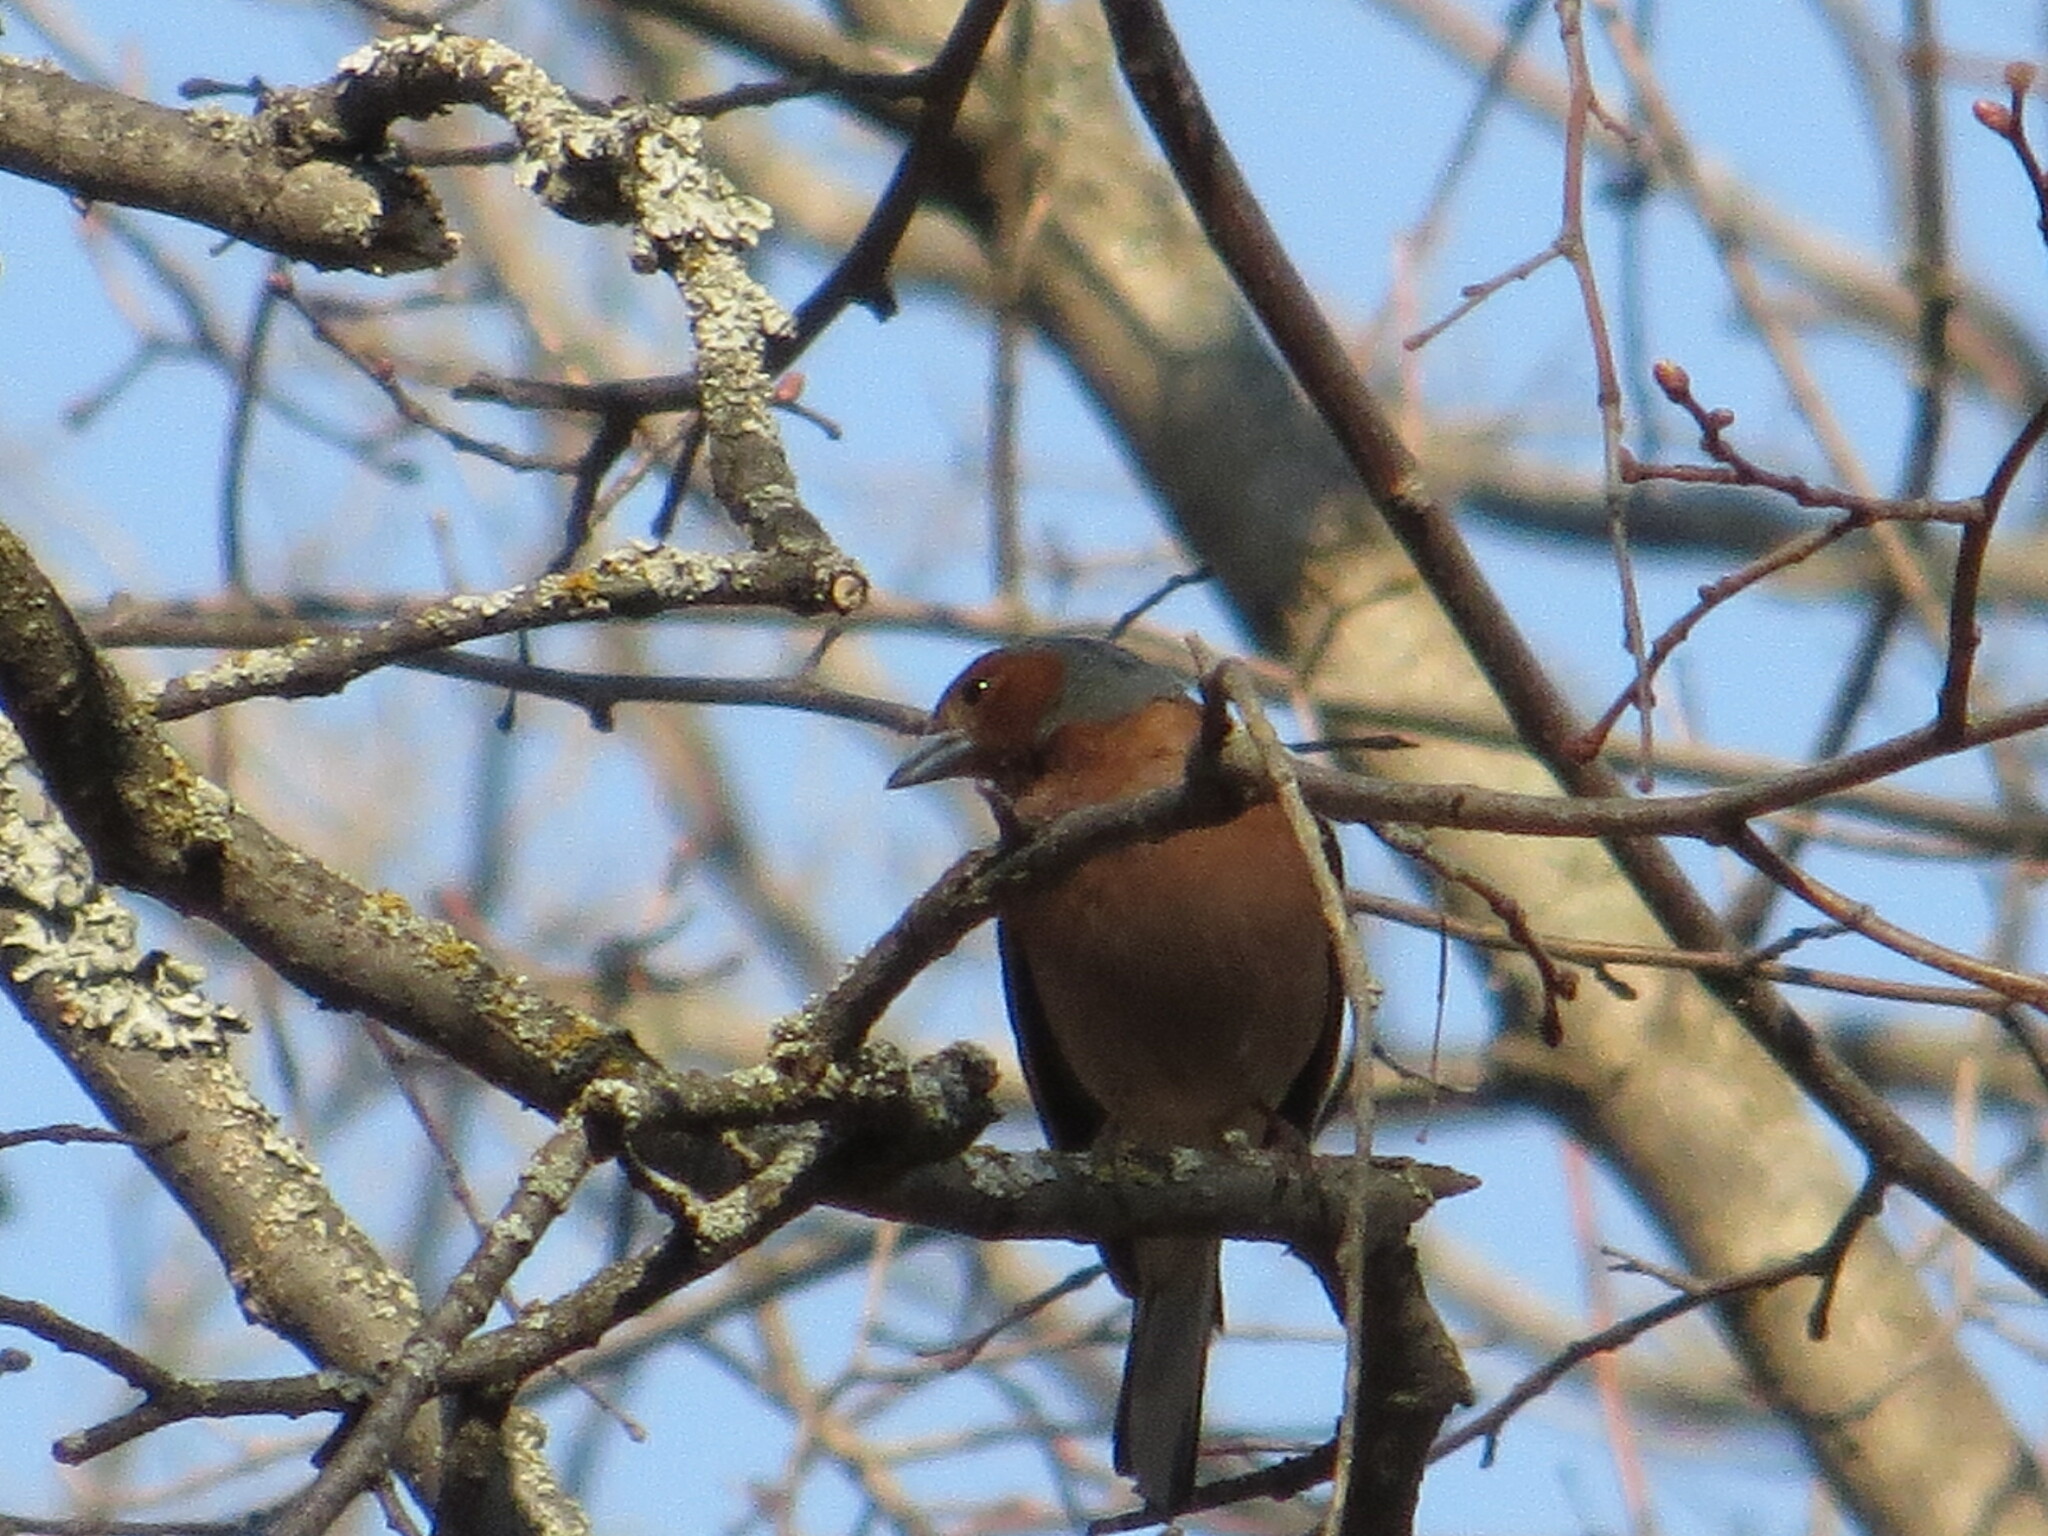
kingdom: Animalia
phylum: Chordata
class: Aves
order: Passeriformes
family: Fringillidae
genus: Fringilla
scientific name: Fringilla coelebs
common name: Common chaffinch
